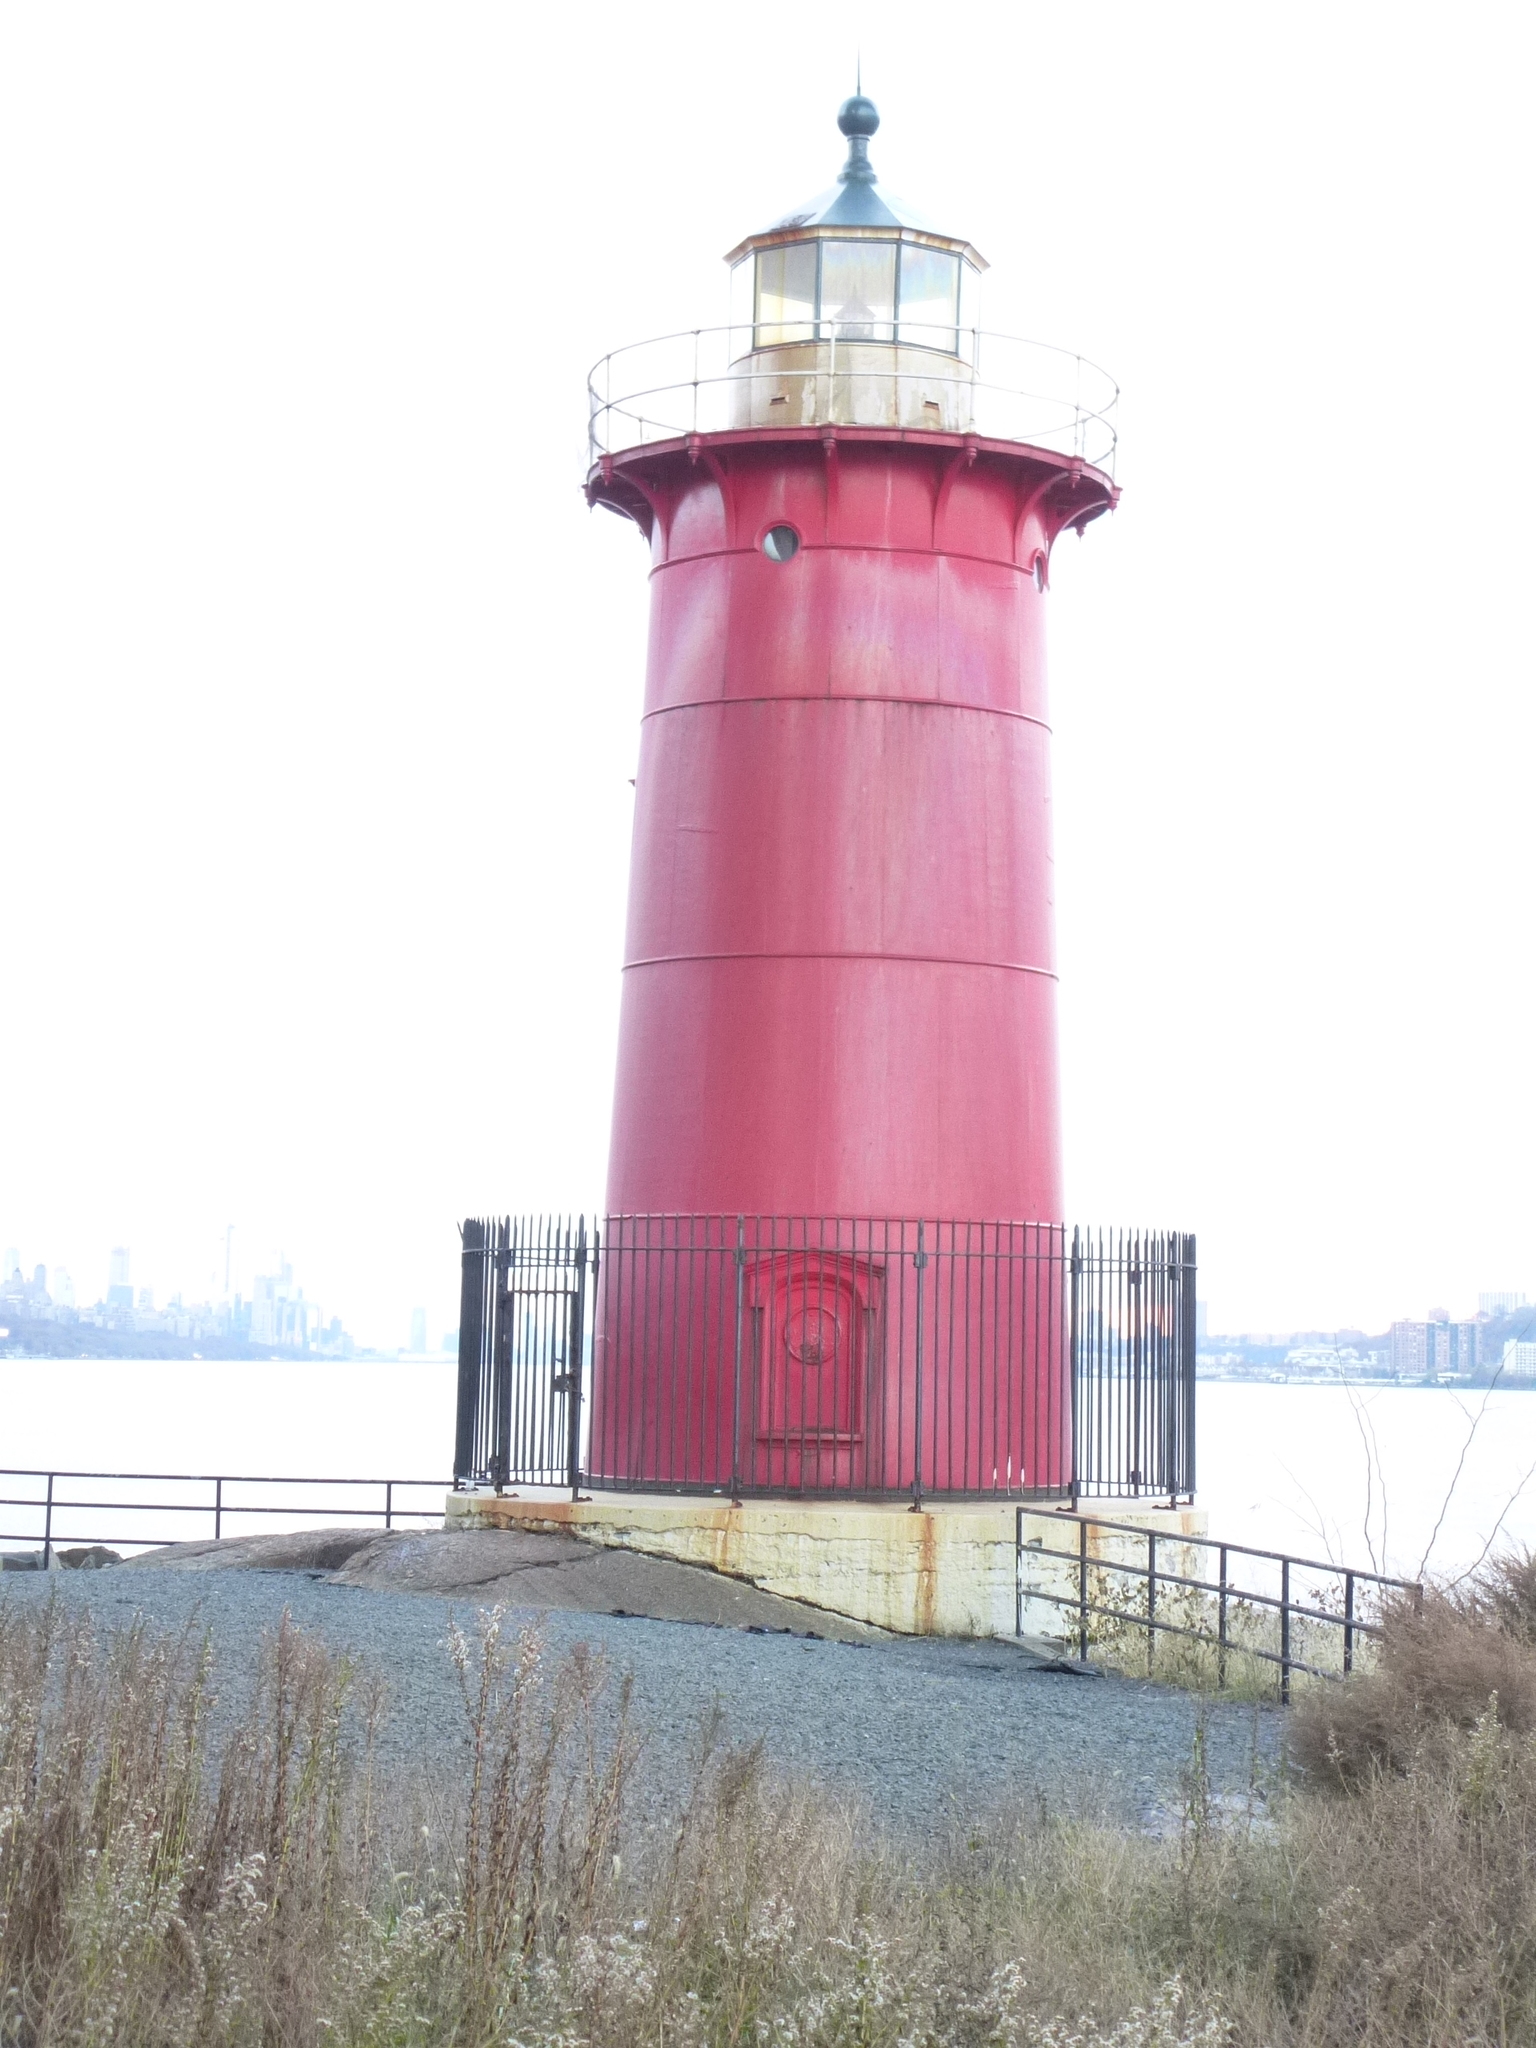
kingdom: Plantae
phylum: Tracheophyta
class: Magnoliopsida
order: Asterales
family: Asteraceae
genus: Solidago
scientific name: Solidago sempervirens
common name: Salt-marsh goldenrod
